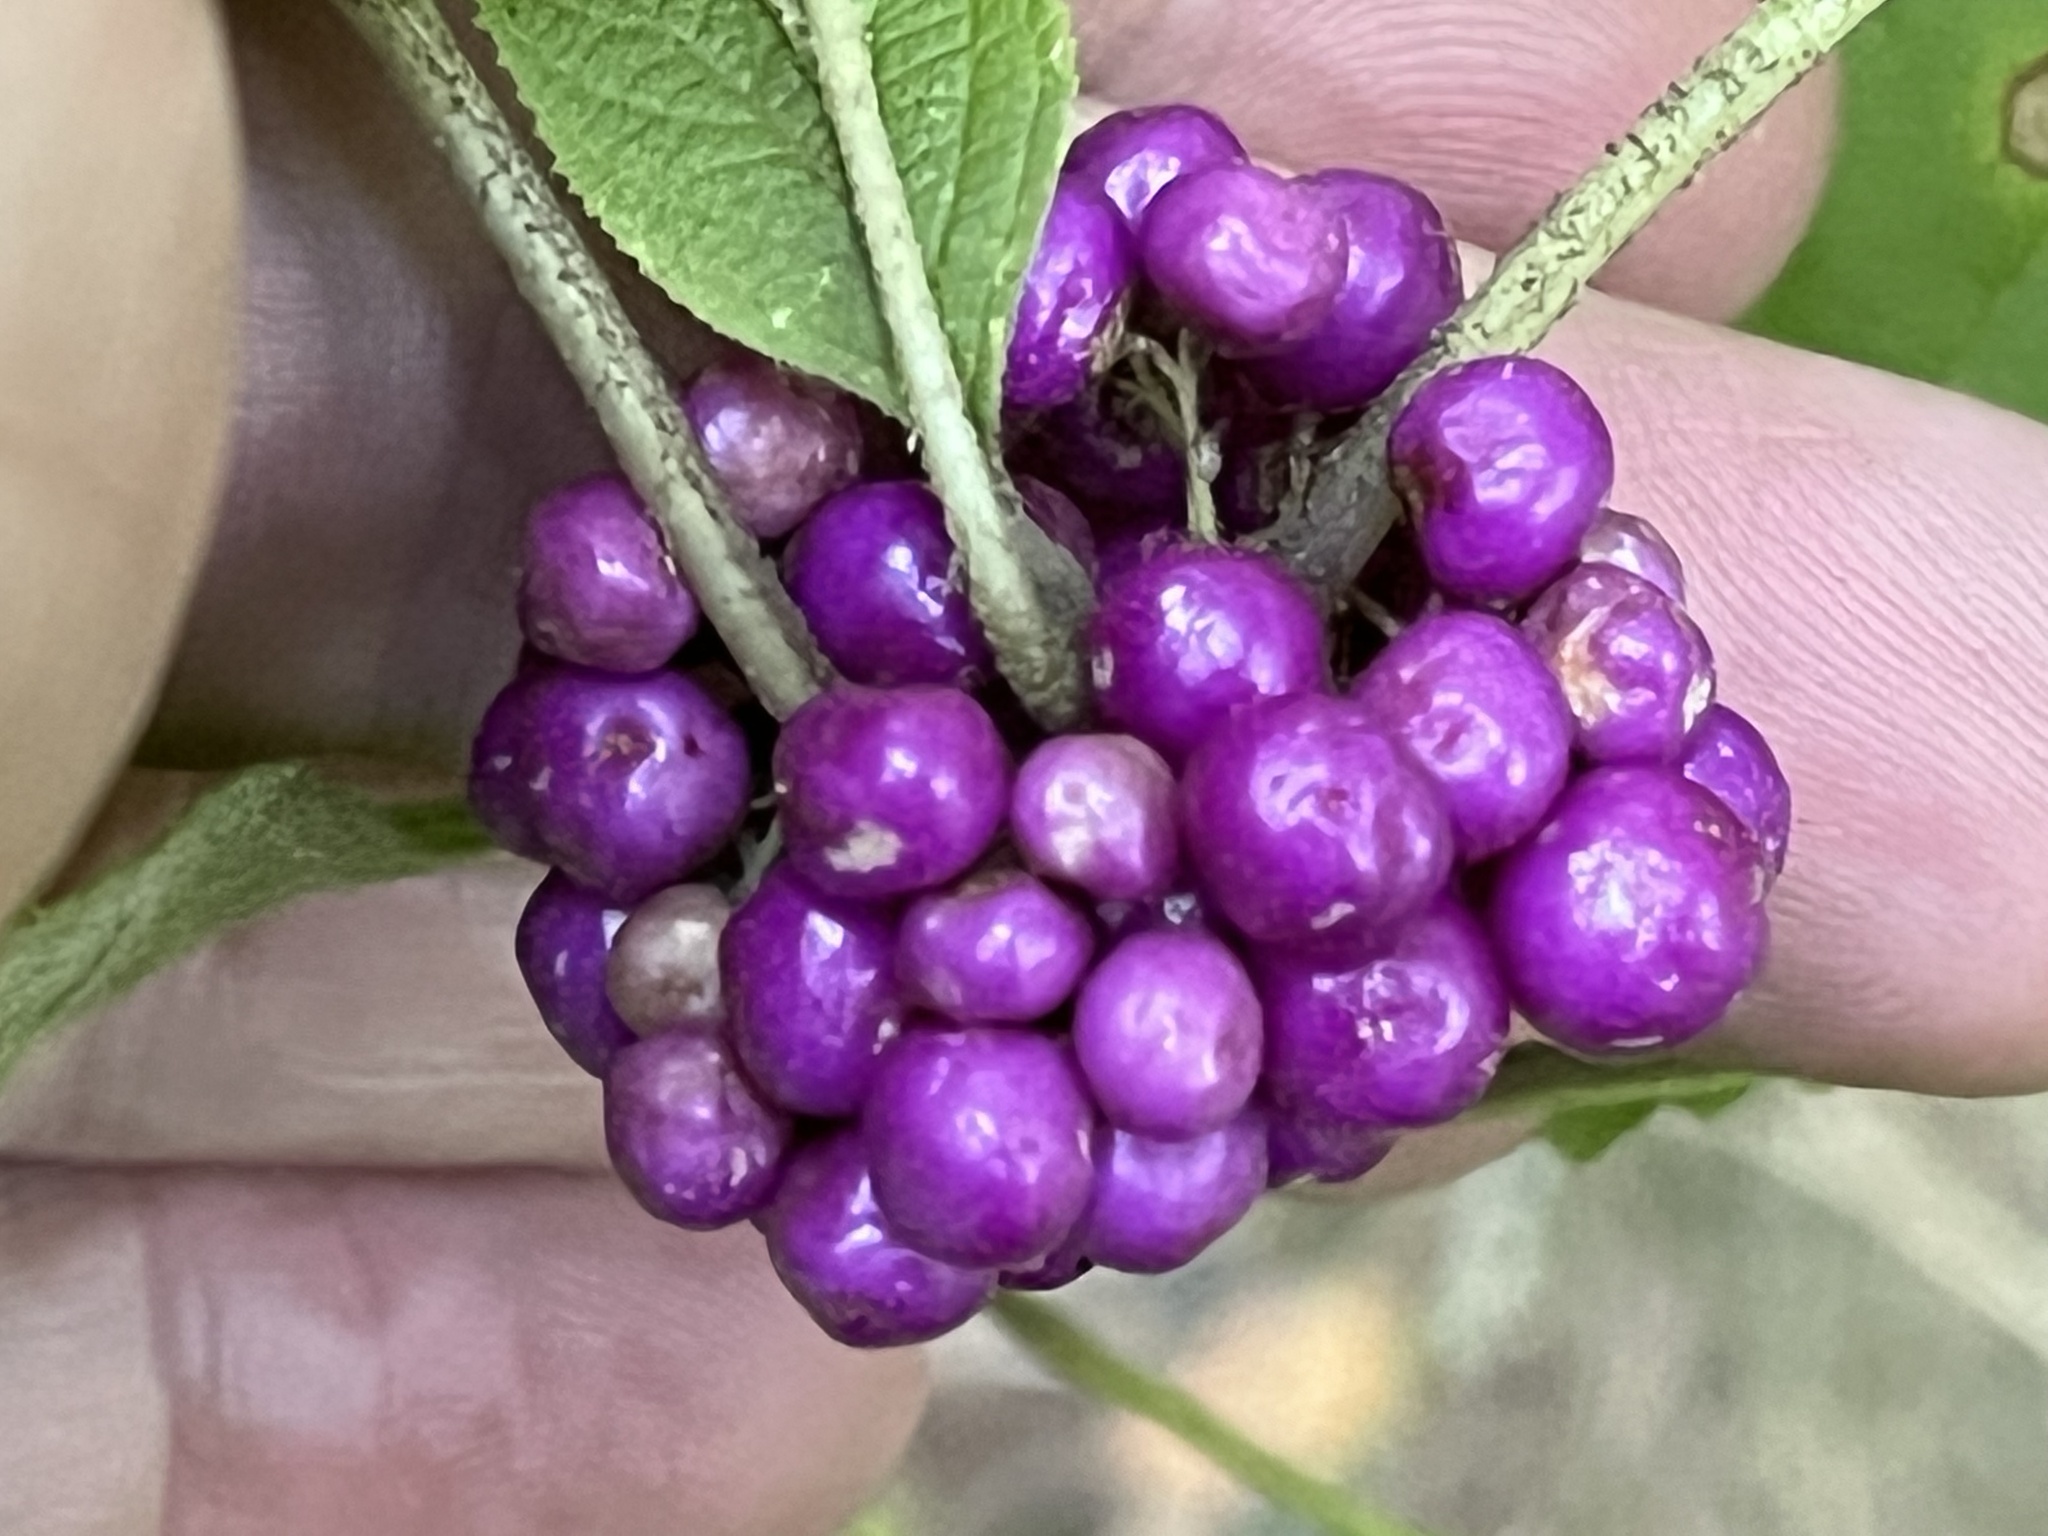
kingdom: Plantae
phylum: Tracheophyta
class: Magnoliopsida
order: Lamiales
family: Lamiaceae
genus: Callicarpa
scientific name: Callicarpa americana
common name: American beautyberry
